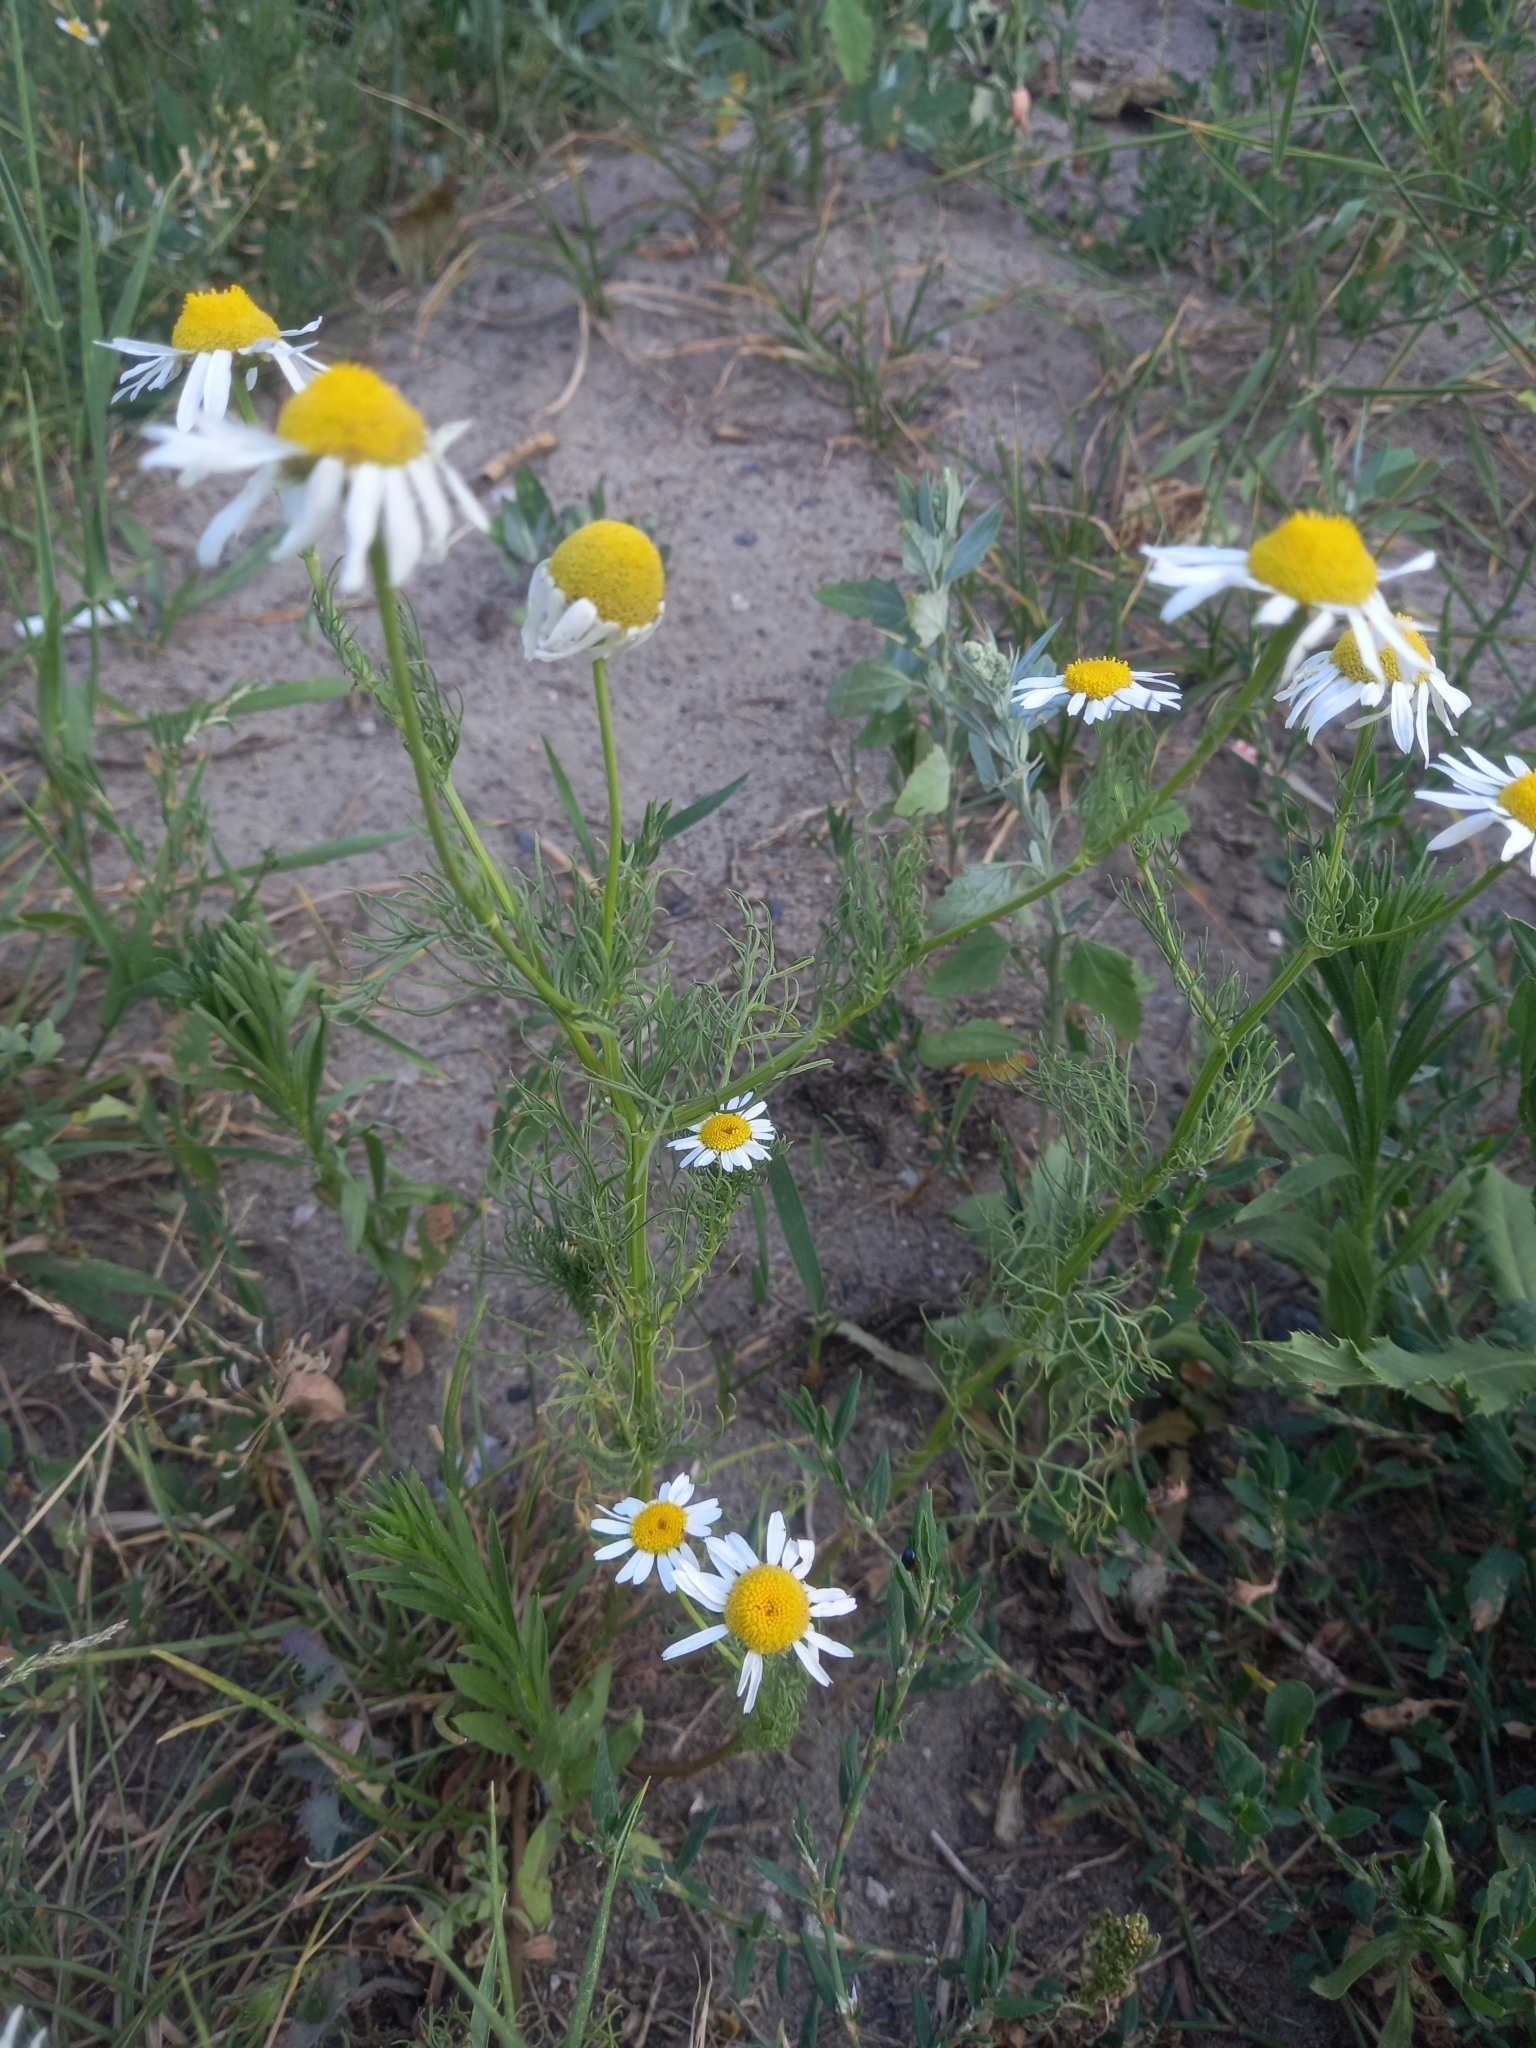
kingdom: Plantae
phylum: Tracheophyta
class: Magnoliopsida
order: Asterales
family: Asteraceae
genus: Tripleurospermum
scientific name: Tripleurospermum inodorum
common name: Scentless mayweed
